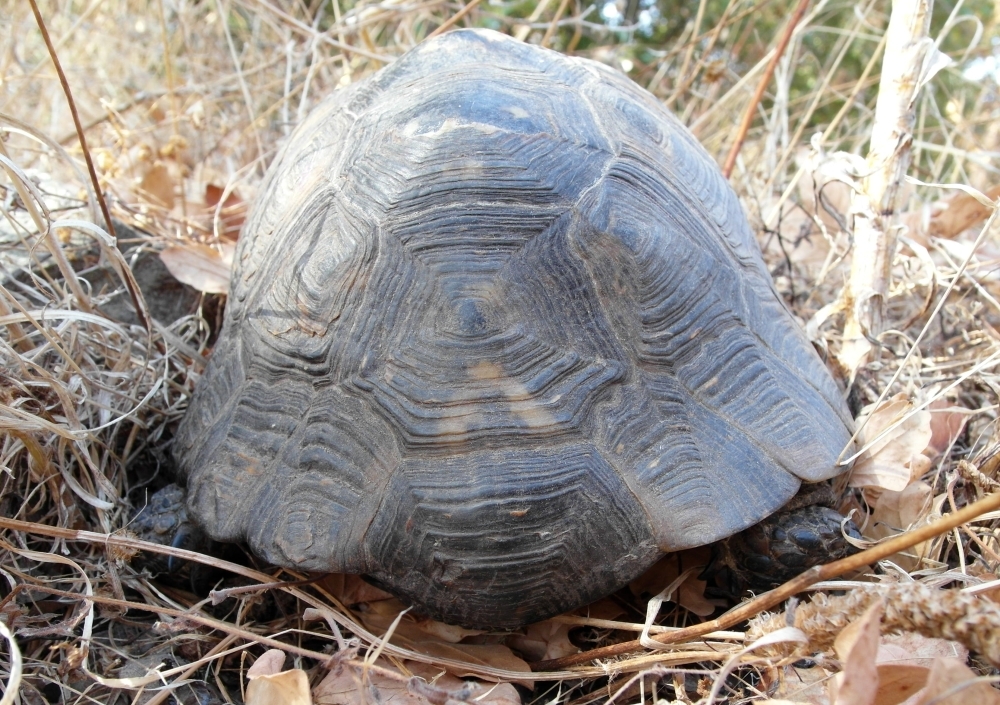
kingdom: Animalia
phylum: Chordata
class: Testudines
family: Testudinidae
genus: Testudo
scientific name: Testudo graeca
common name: Common tortoise
